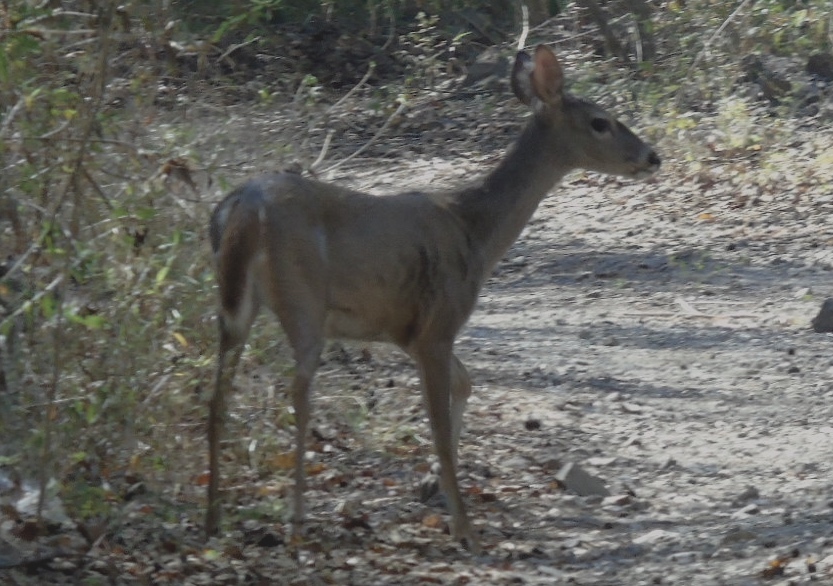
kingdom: Animalia
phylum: Chordata
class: Mammalia
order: Artiodactyla
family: Cervidae
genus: Odocoileus
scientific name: Odocoileus virginianus
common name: White-tailed deer
